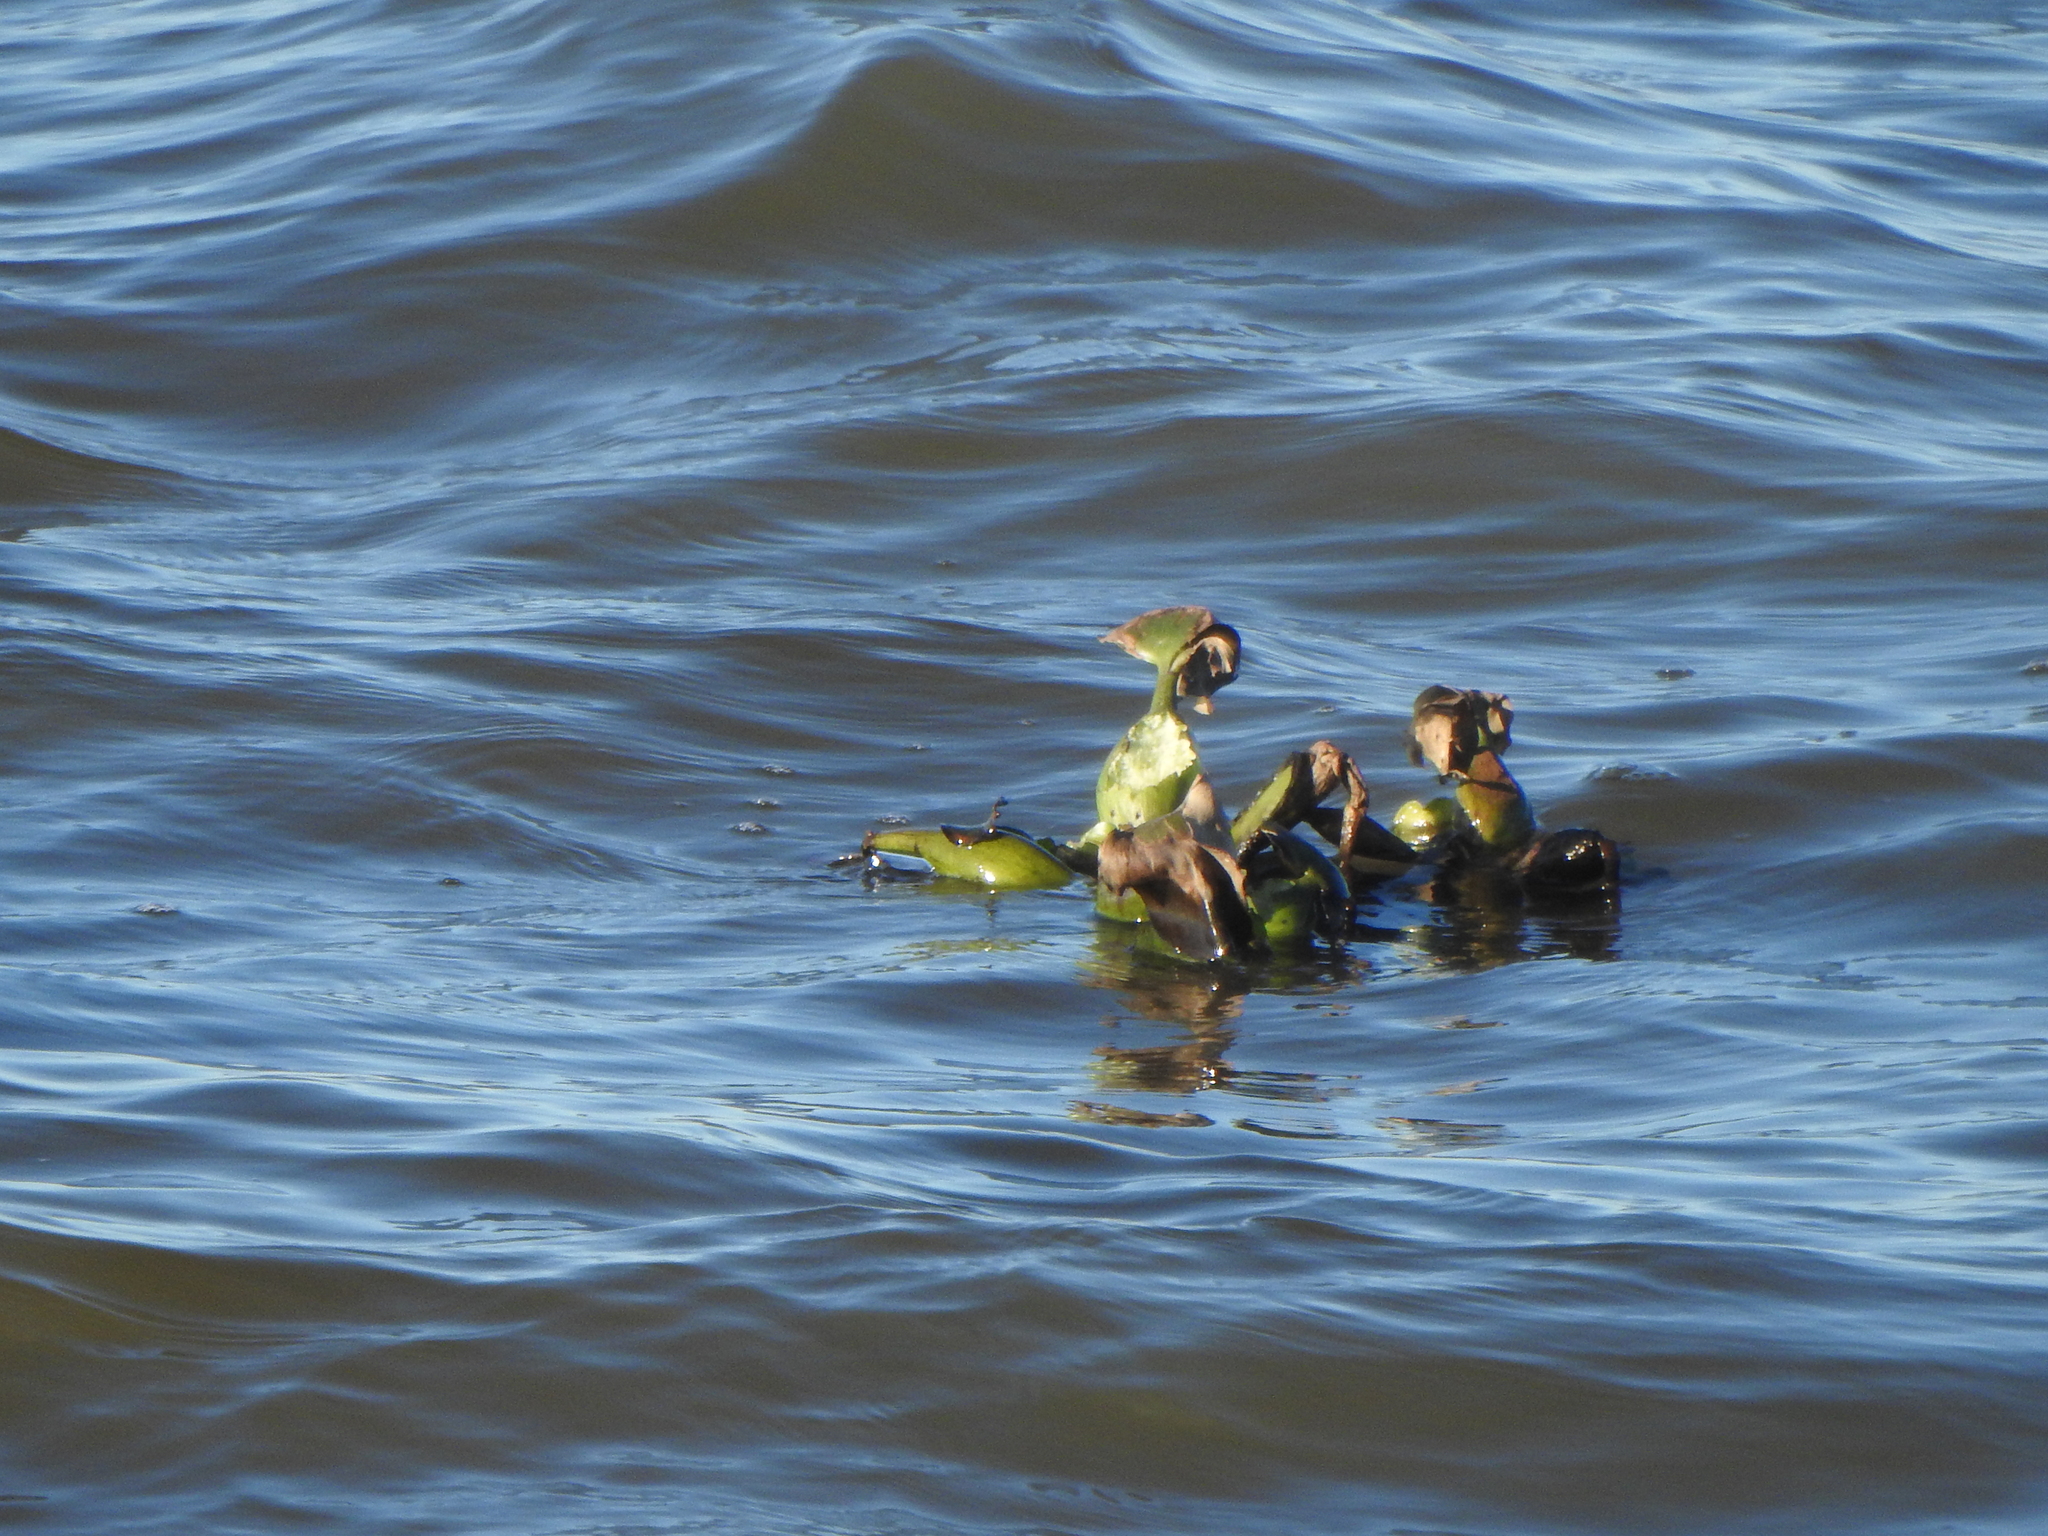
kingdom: Plantae
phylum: Tracheophyta
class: Liliopsida
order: Commelinales
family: Pontederiaceae
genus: Pontederia
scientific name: Pontederia crassipes
